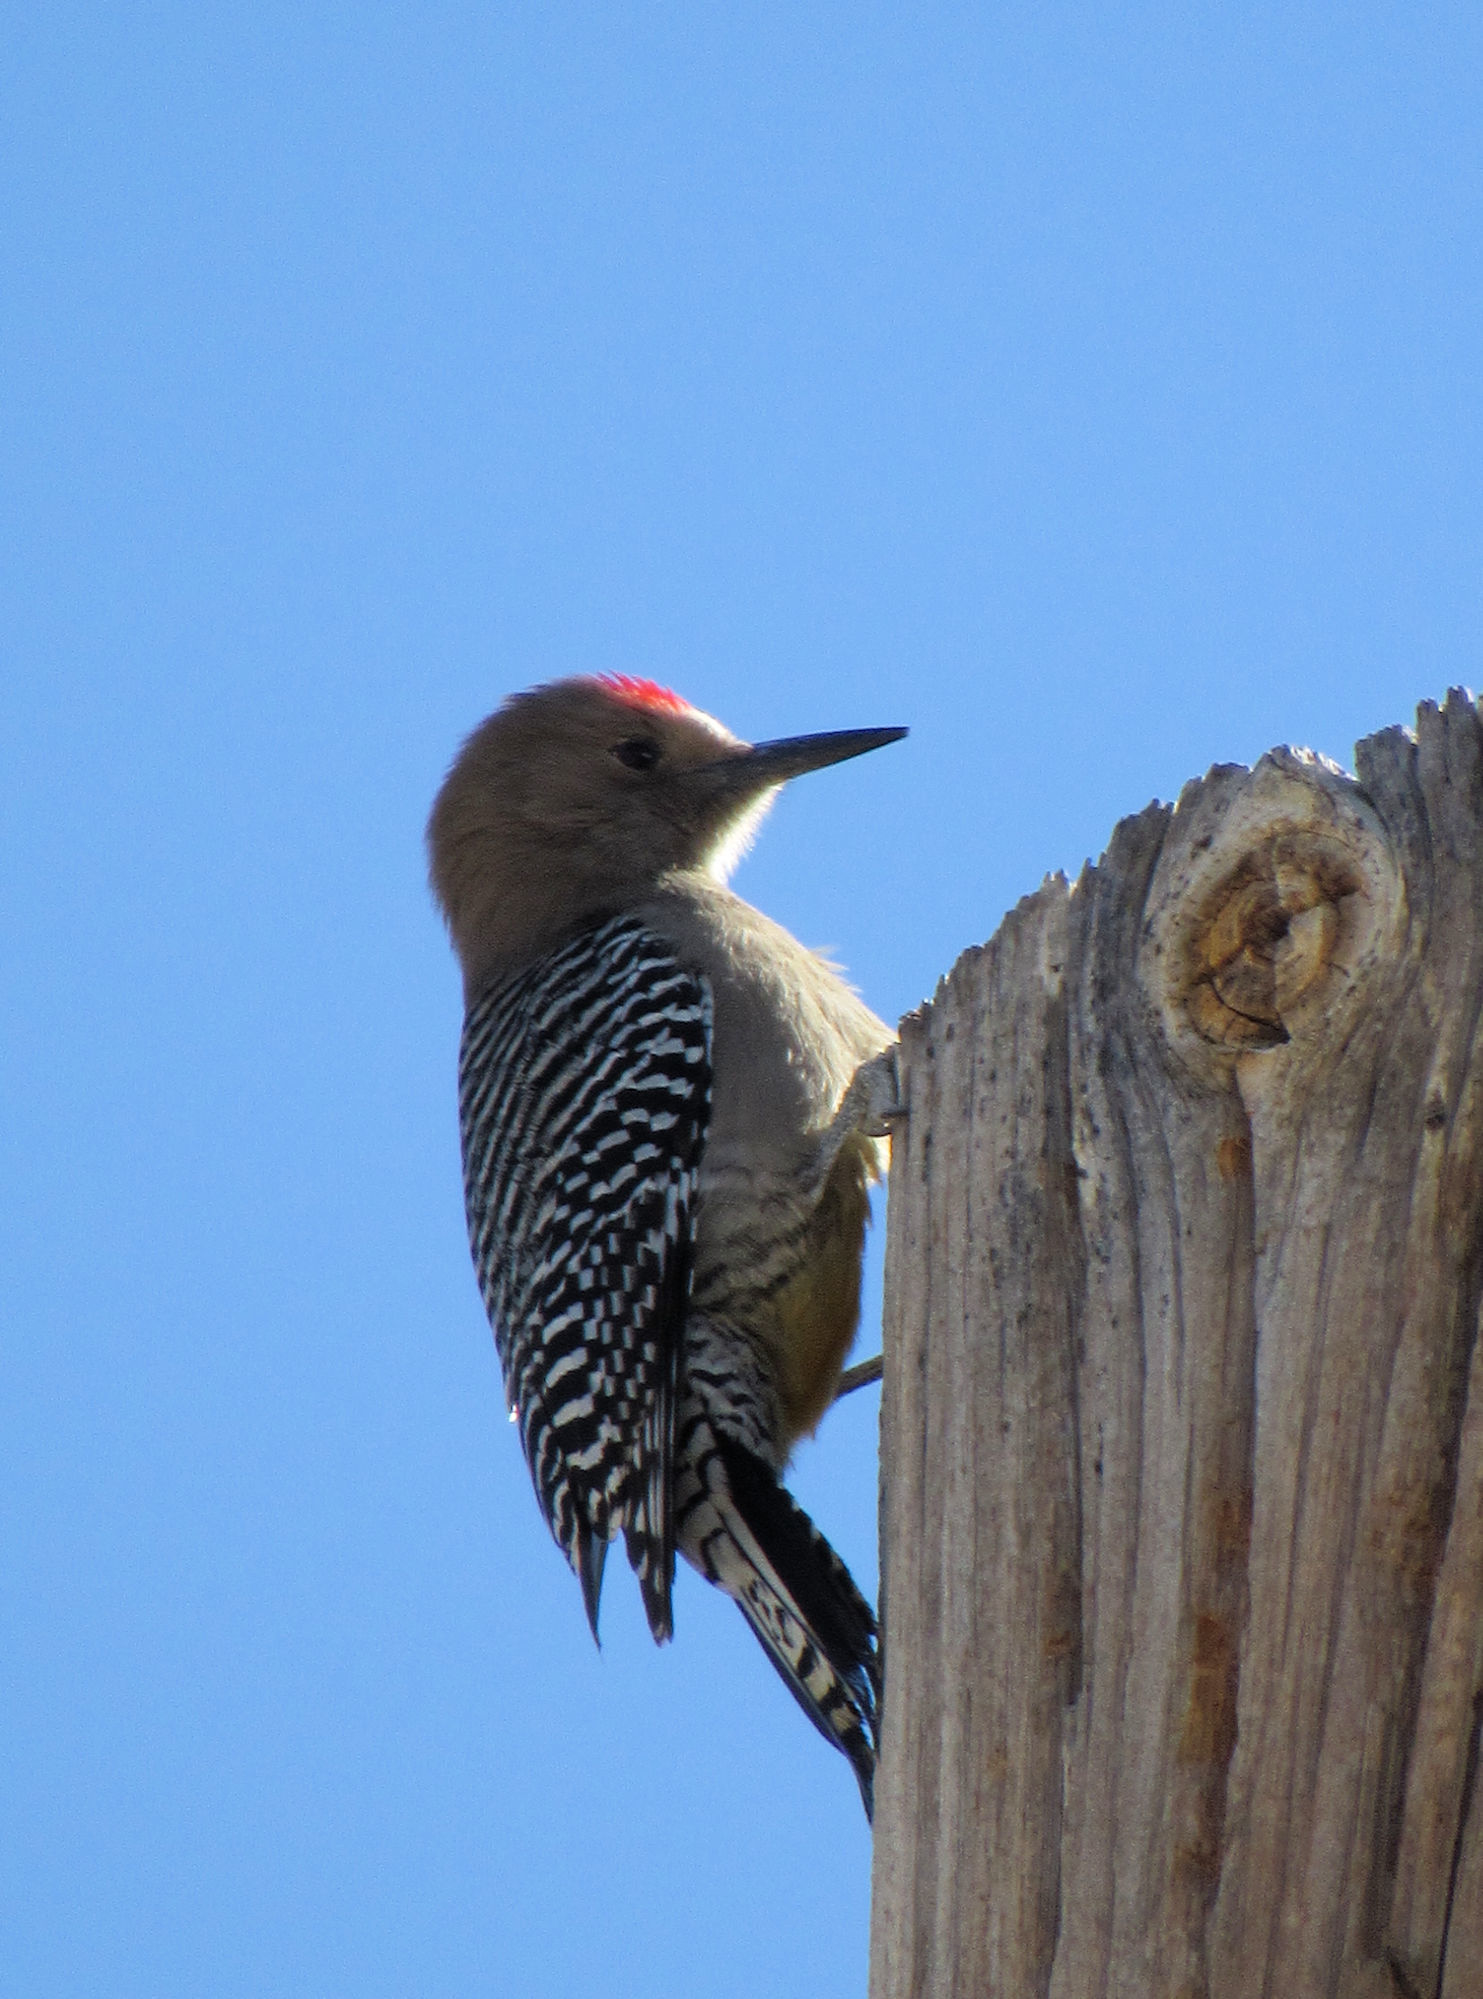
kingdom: Animalia
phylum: Chordata
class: Aves
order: Piciformes
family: Picidae
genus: Melanerpes
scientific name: Melanerpes uropygialis
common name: Gila woodpecker
